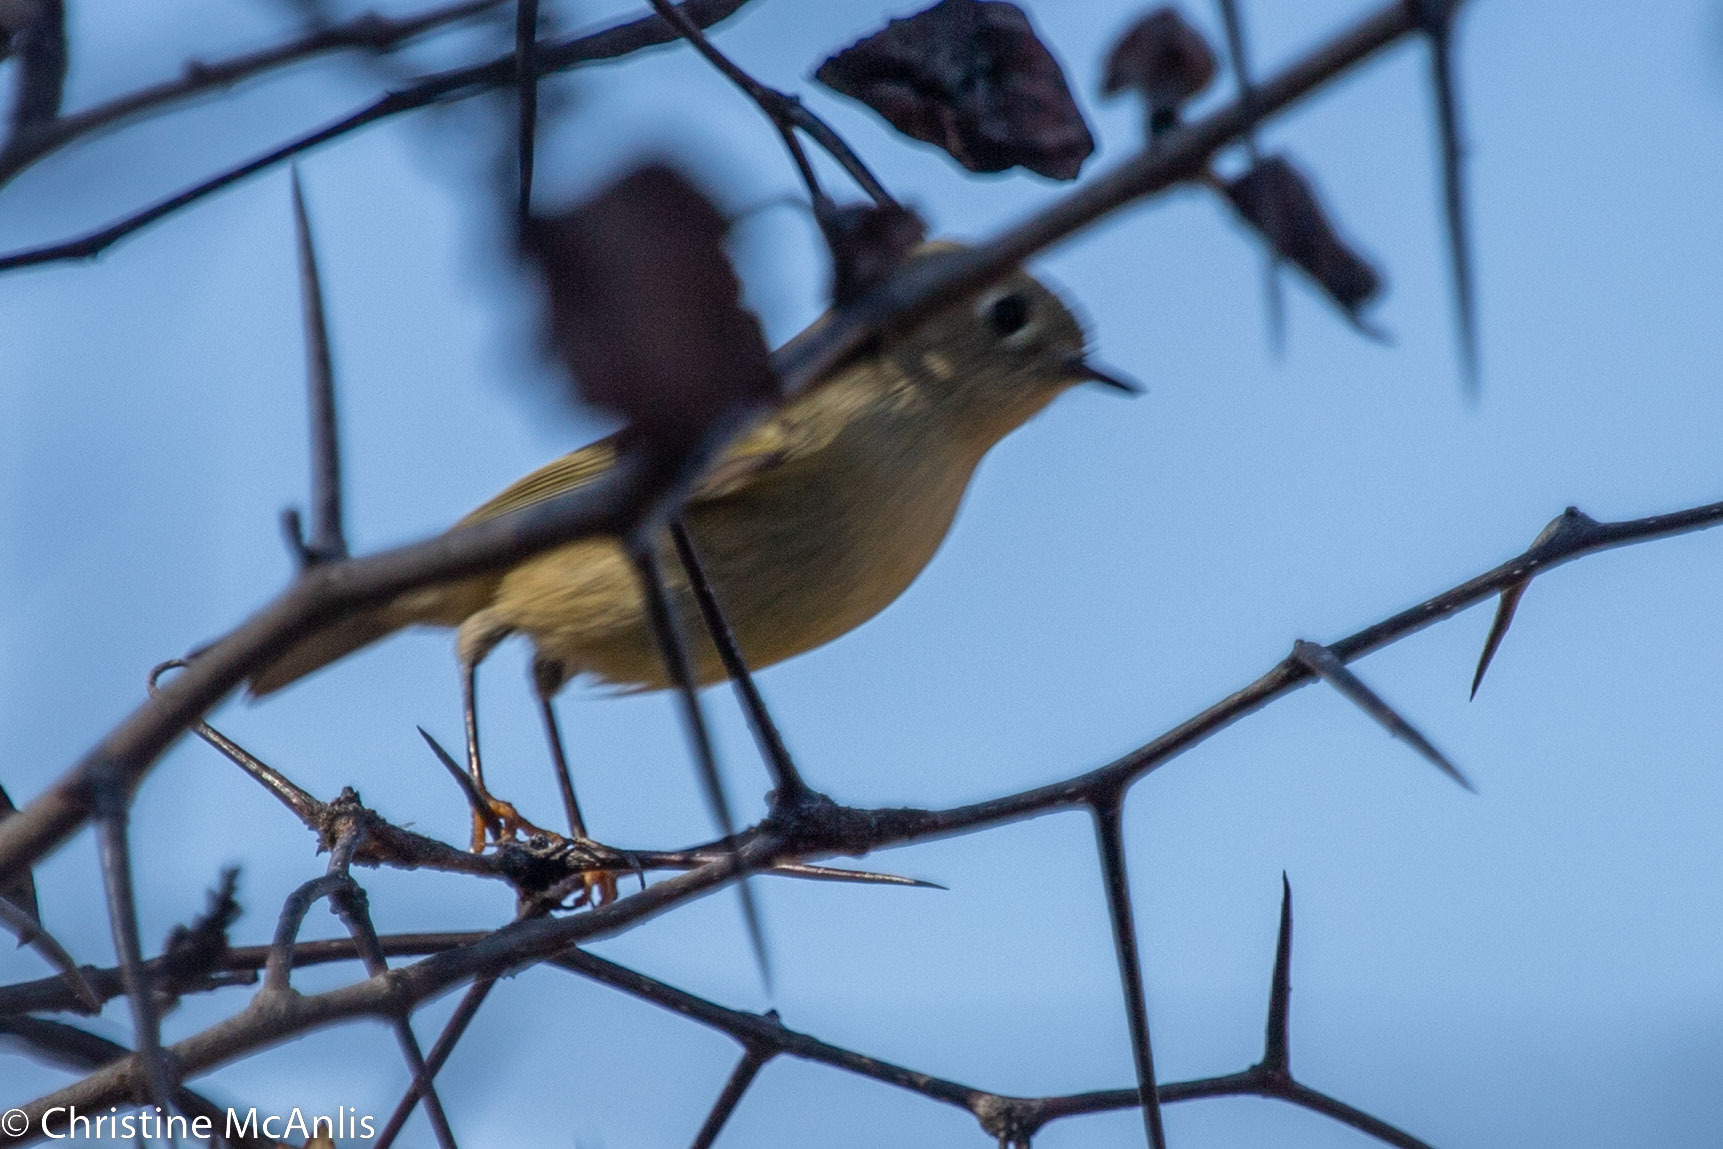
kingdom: Animalia
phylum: Chordata
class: Aves
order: Passeriformes
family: Regulidae
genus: Regulus
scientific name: Regulus calendula
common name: Ruby-crowned kinglet
